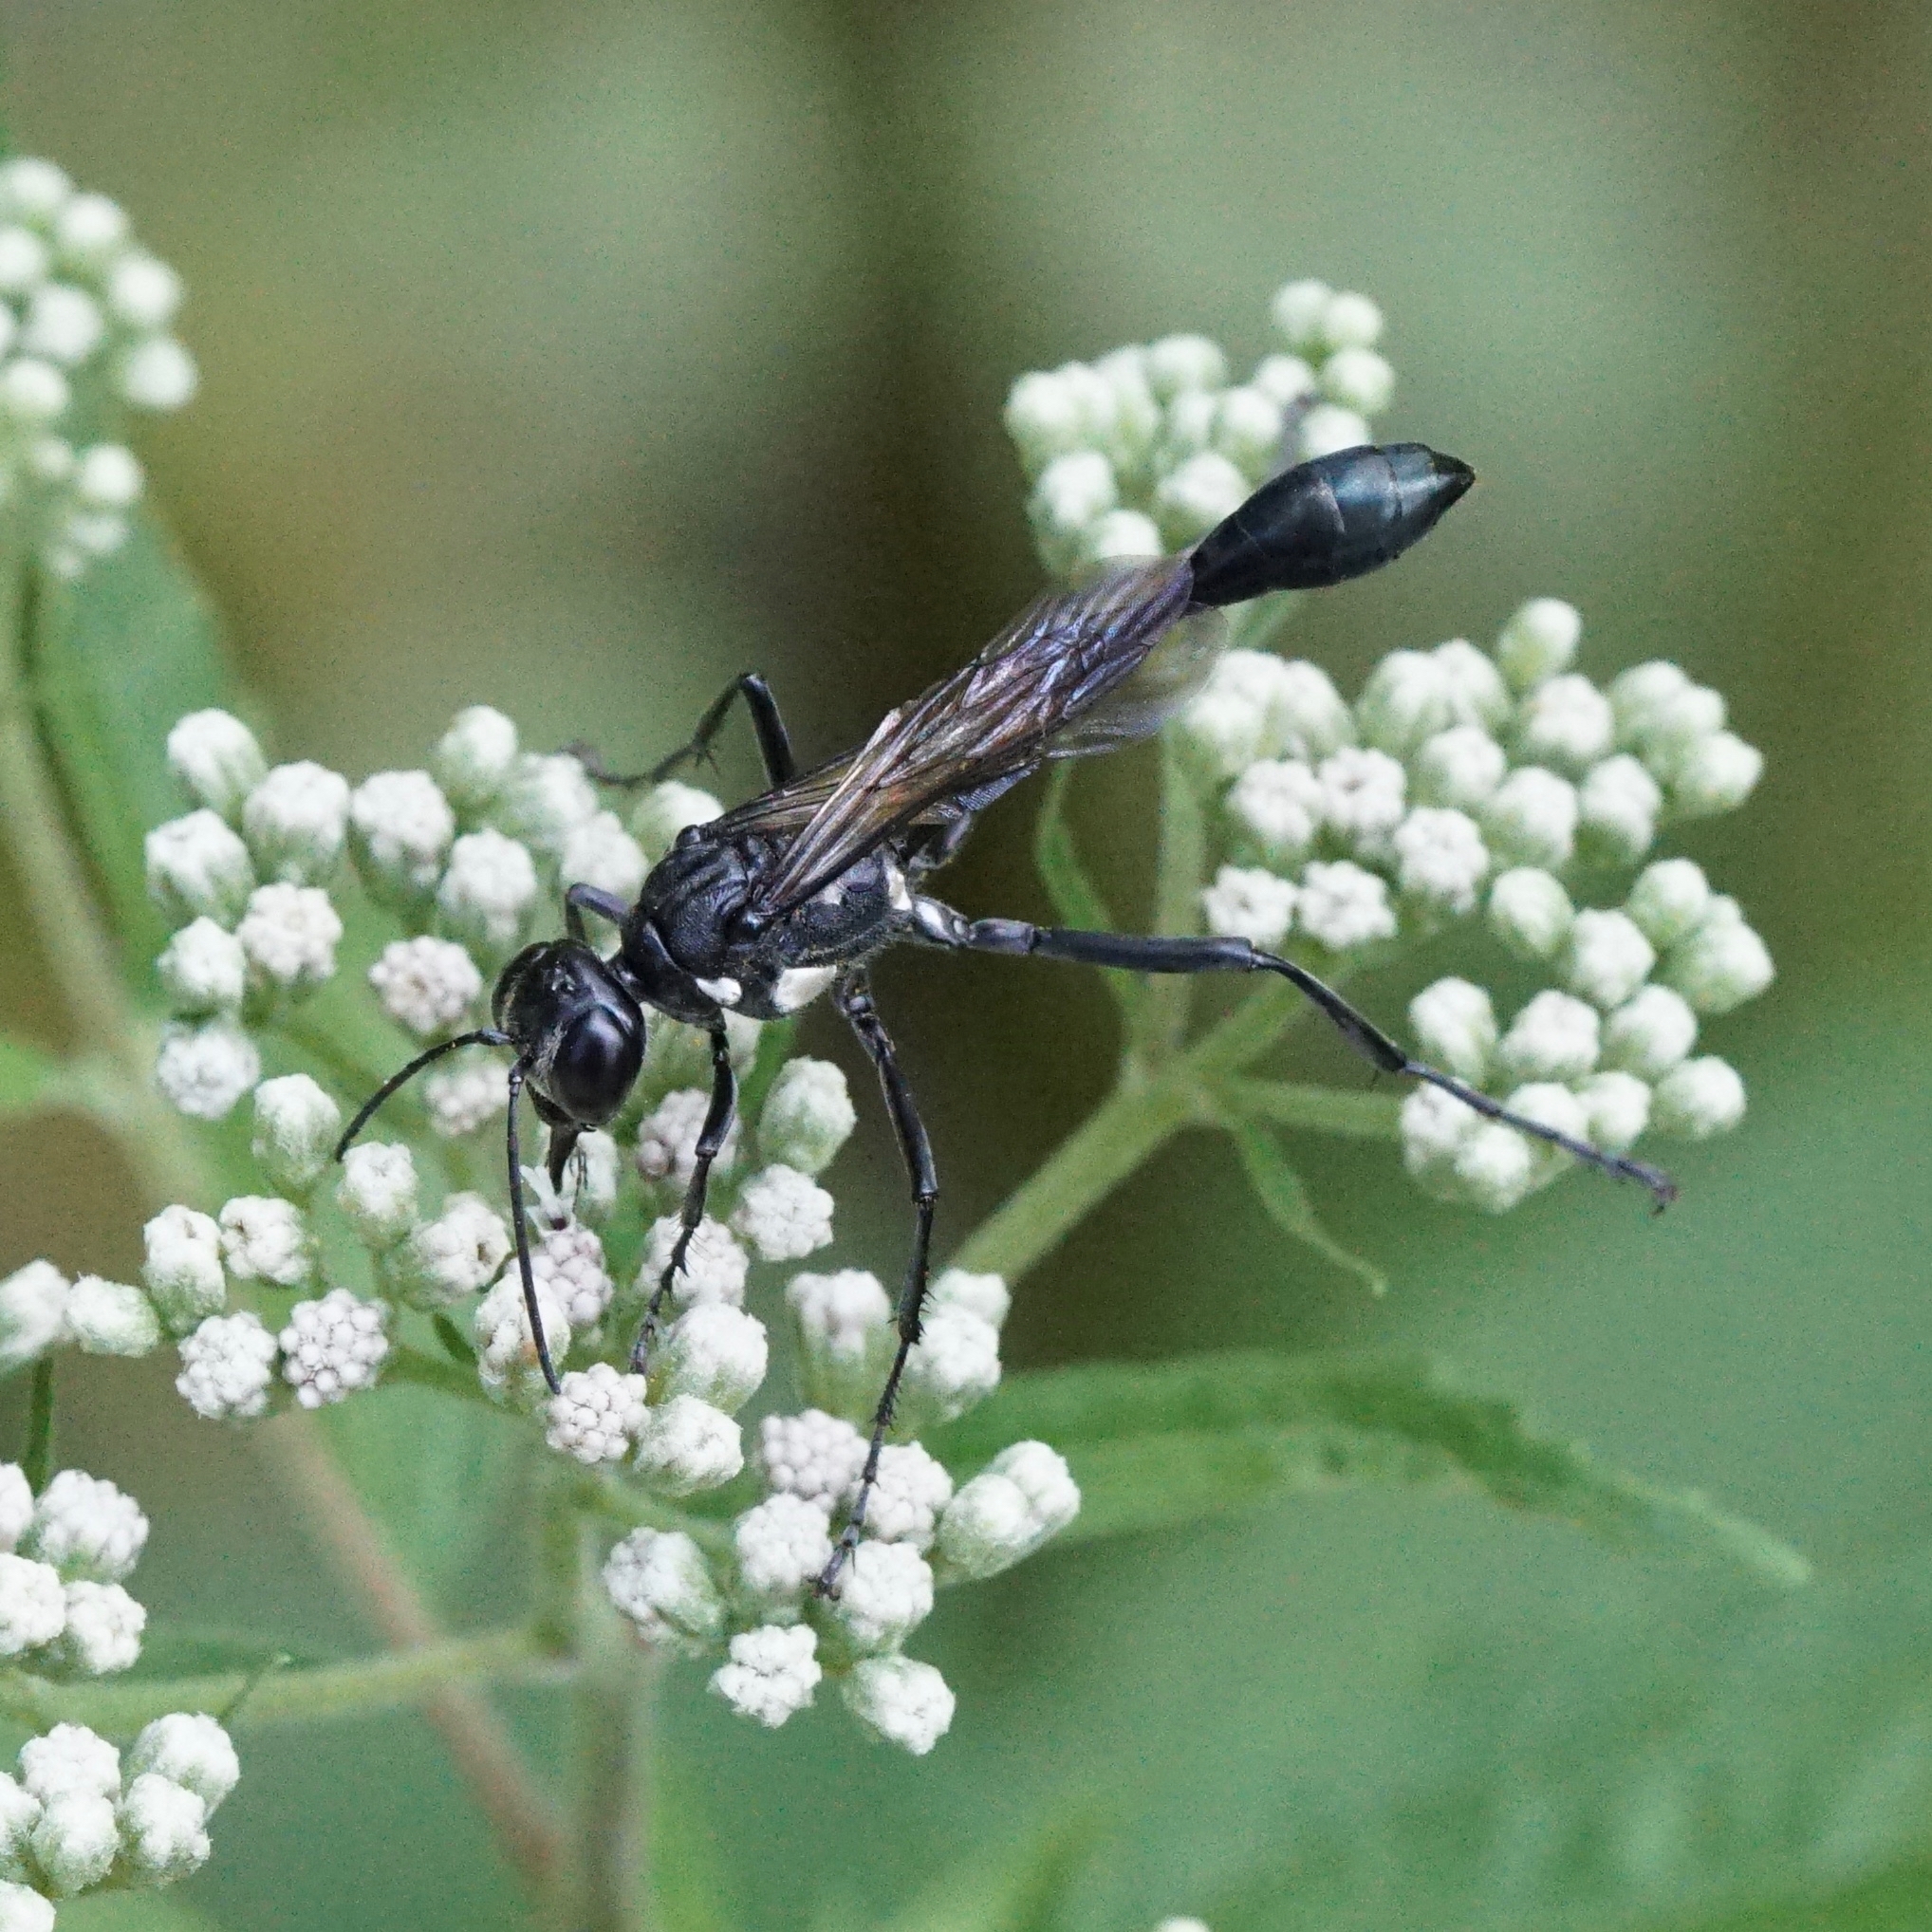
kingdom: Animalia
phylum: Arthropoda
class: Insecta
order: Hymenoptera
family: Sphecidae
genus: Eremnophila
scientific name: Eremnophila aureonotata
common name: Gold-marked thread-waisted wasp
